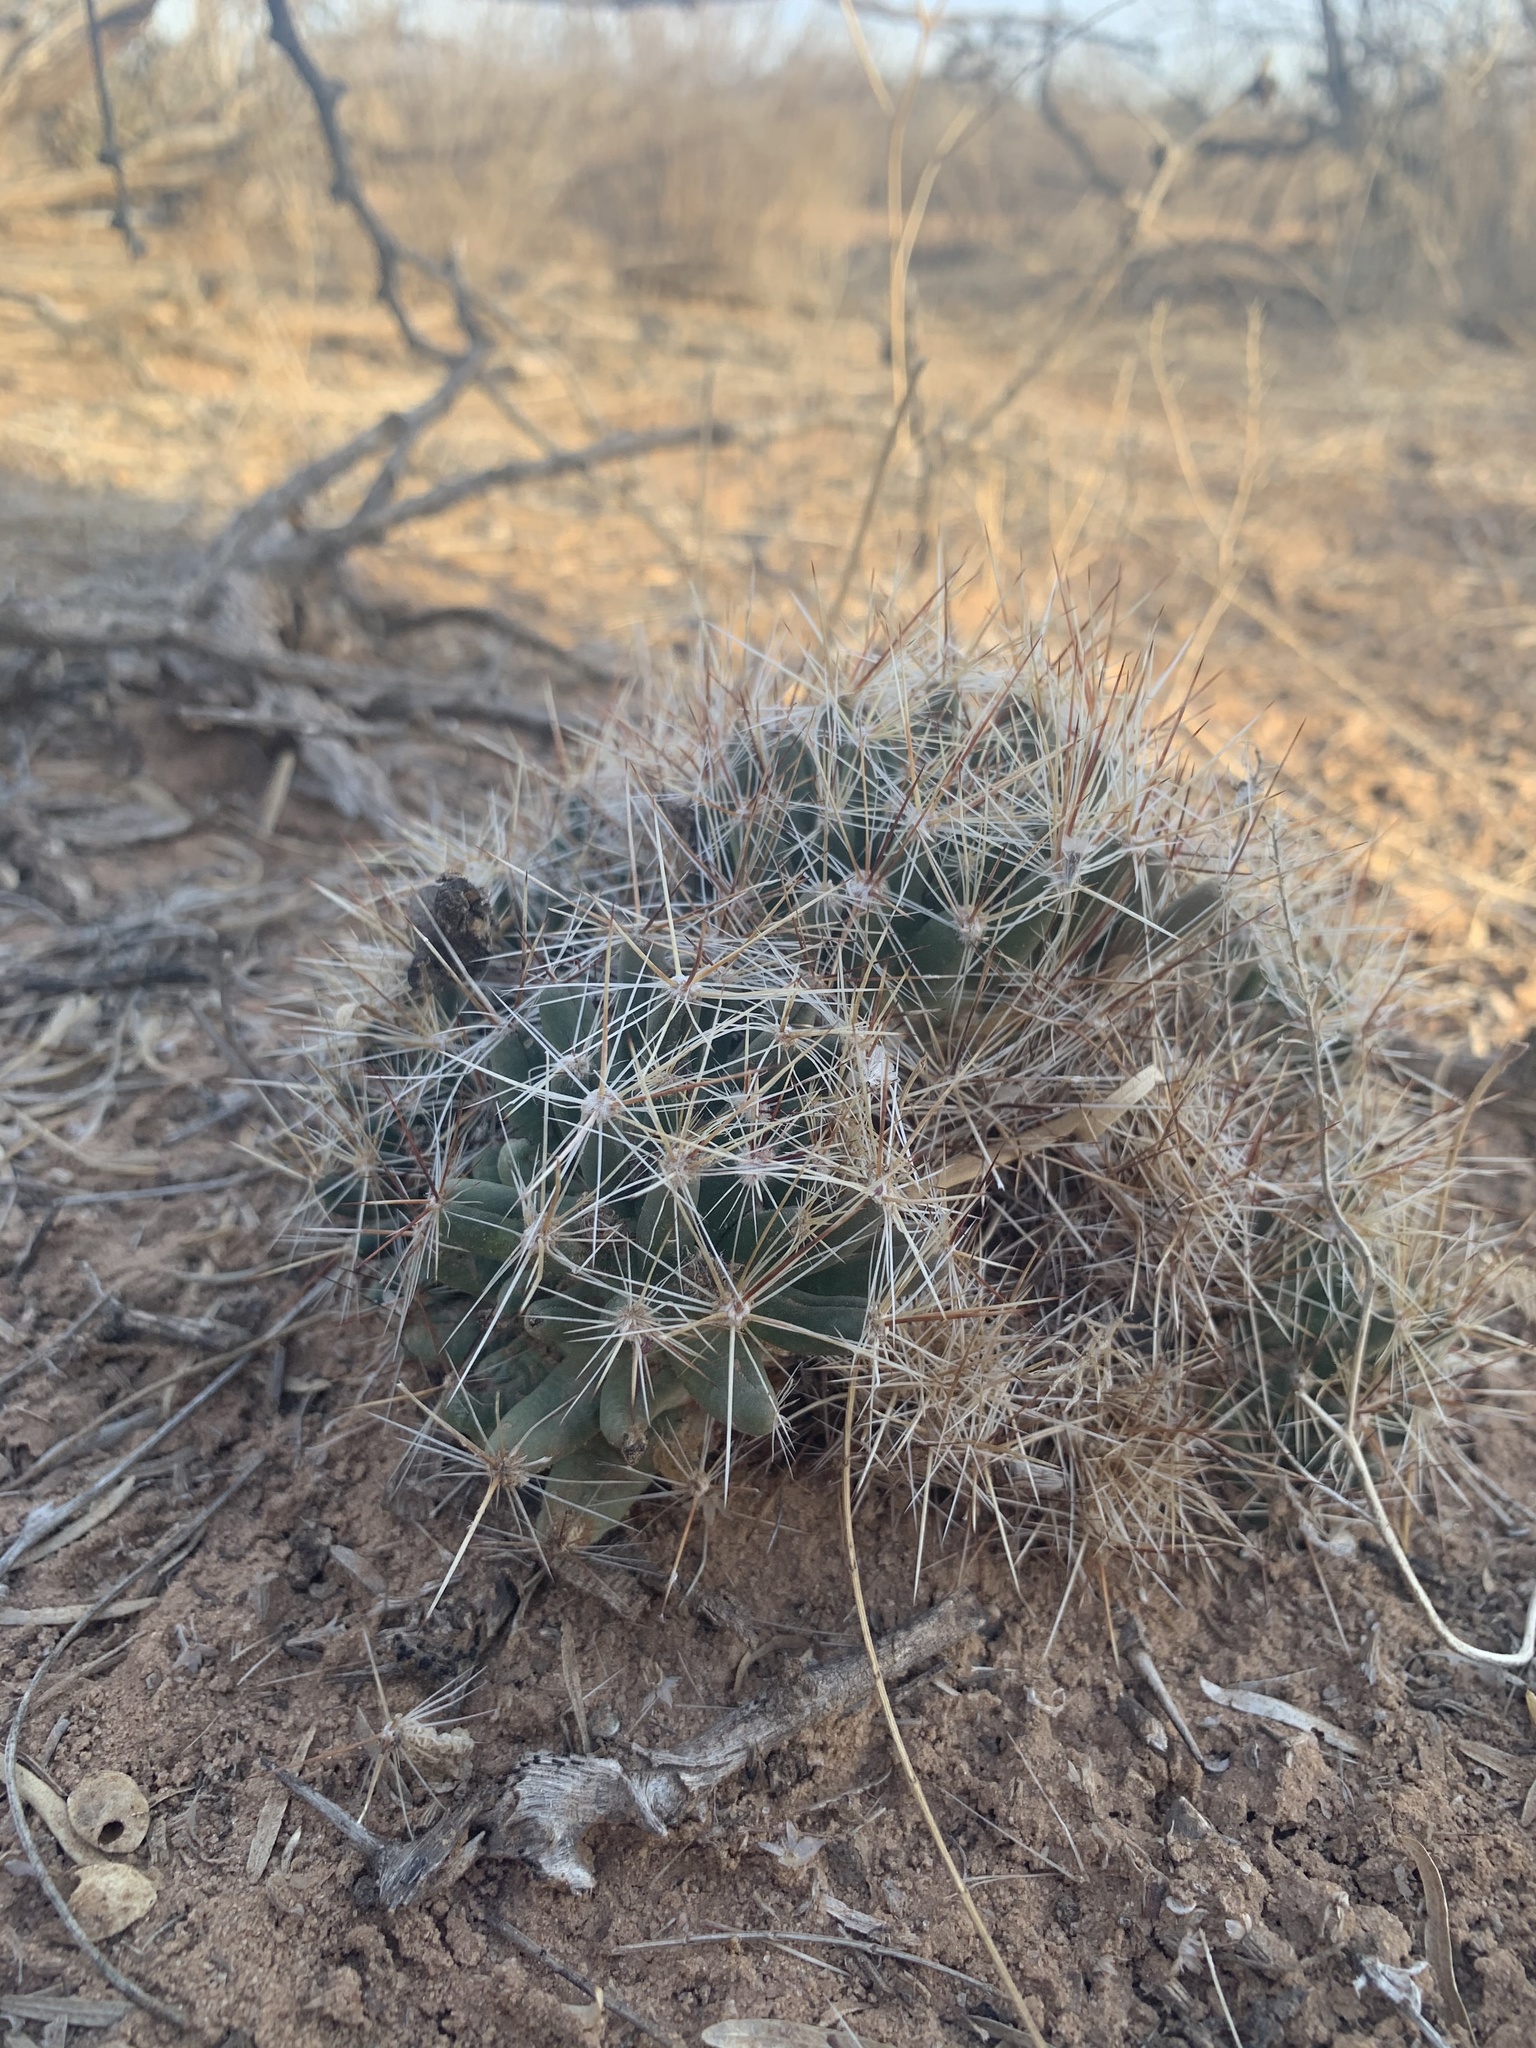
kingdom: Plantae
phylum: Tracheophyta
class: Magnoliopsida
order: Caryophyllales
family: Cactaceae
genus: Pelecyphora
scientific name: Pelecyphora vivipara
